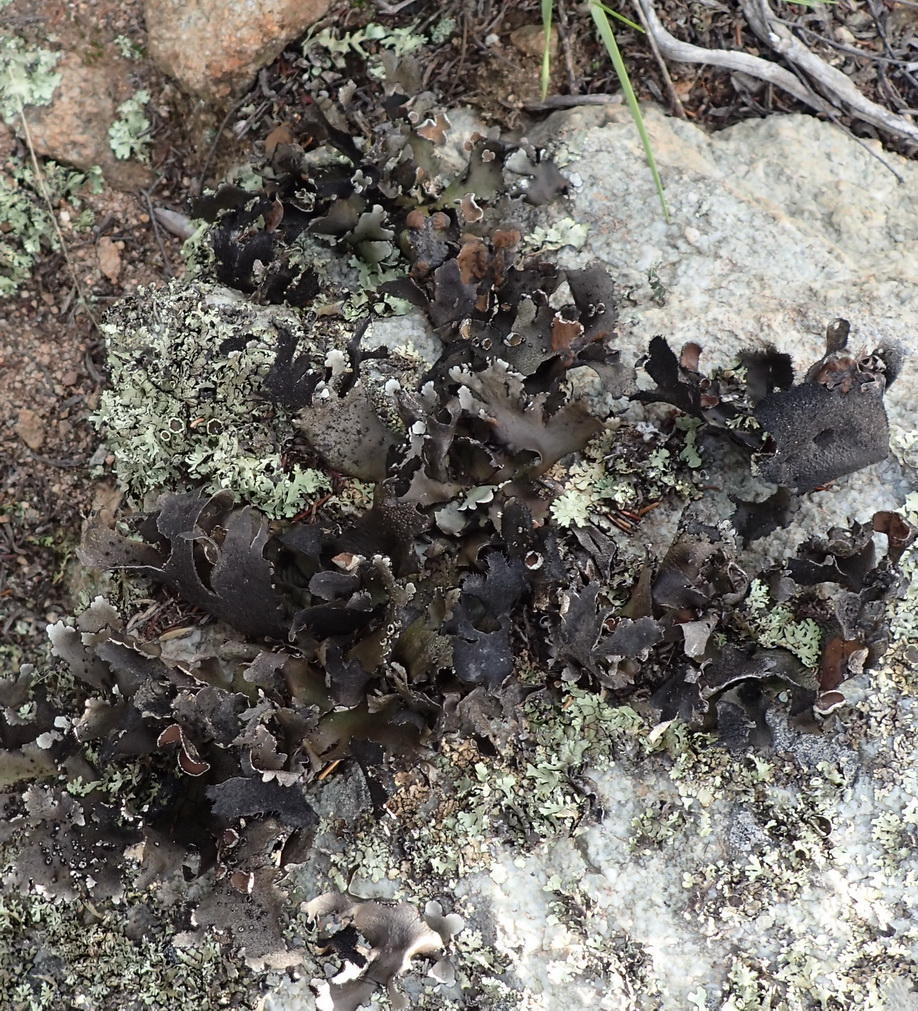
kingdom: Fungi
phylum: Ascomycota
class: Lecanoromycetes
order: Lecanorales
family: Parmeliaceae
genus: Xanthoparmelia
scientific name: Xanthoparmelia hottentotta
